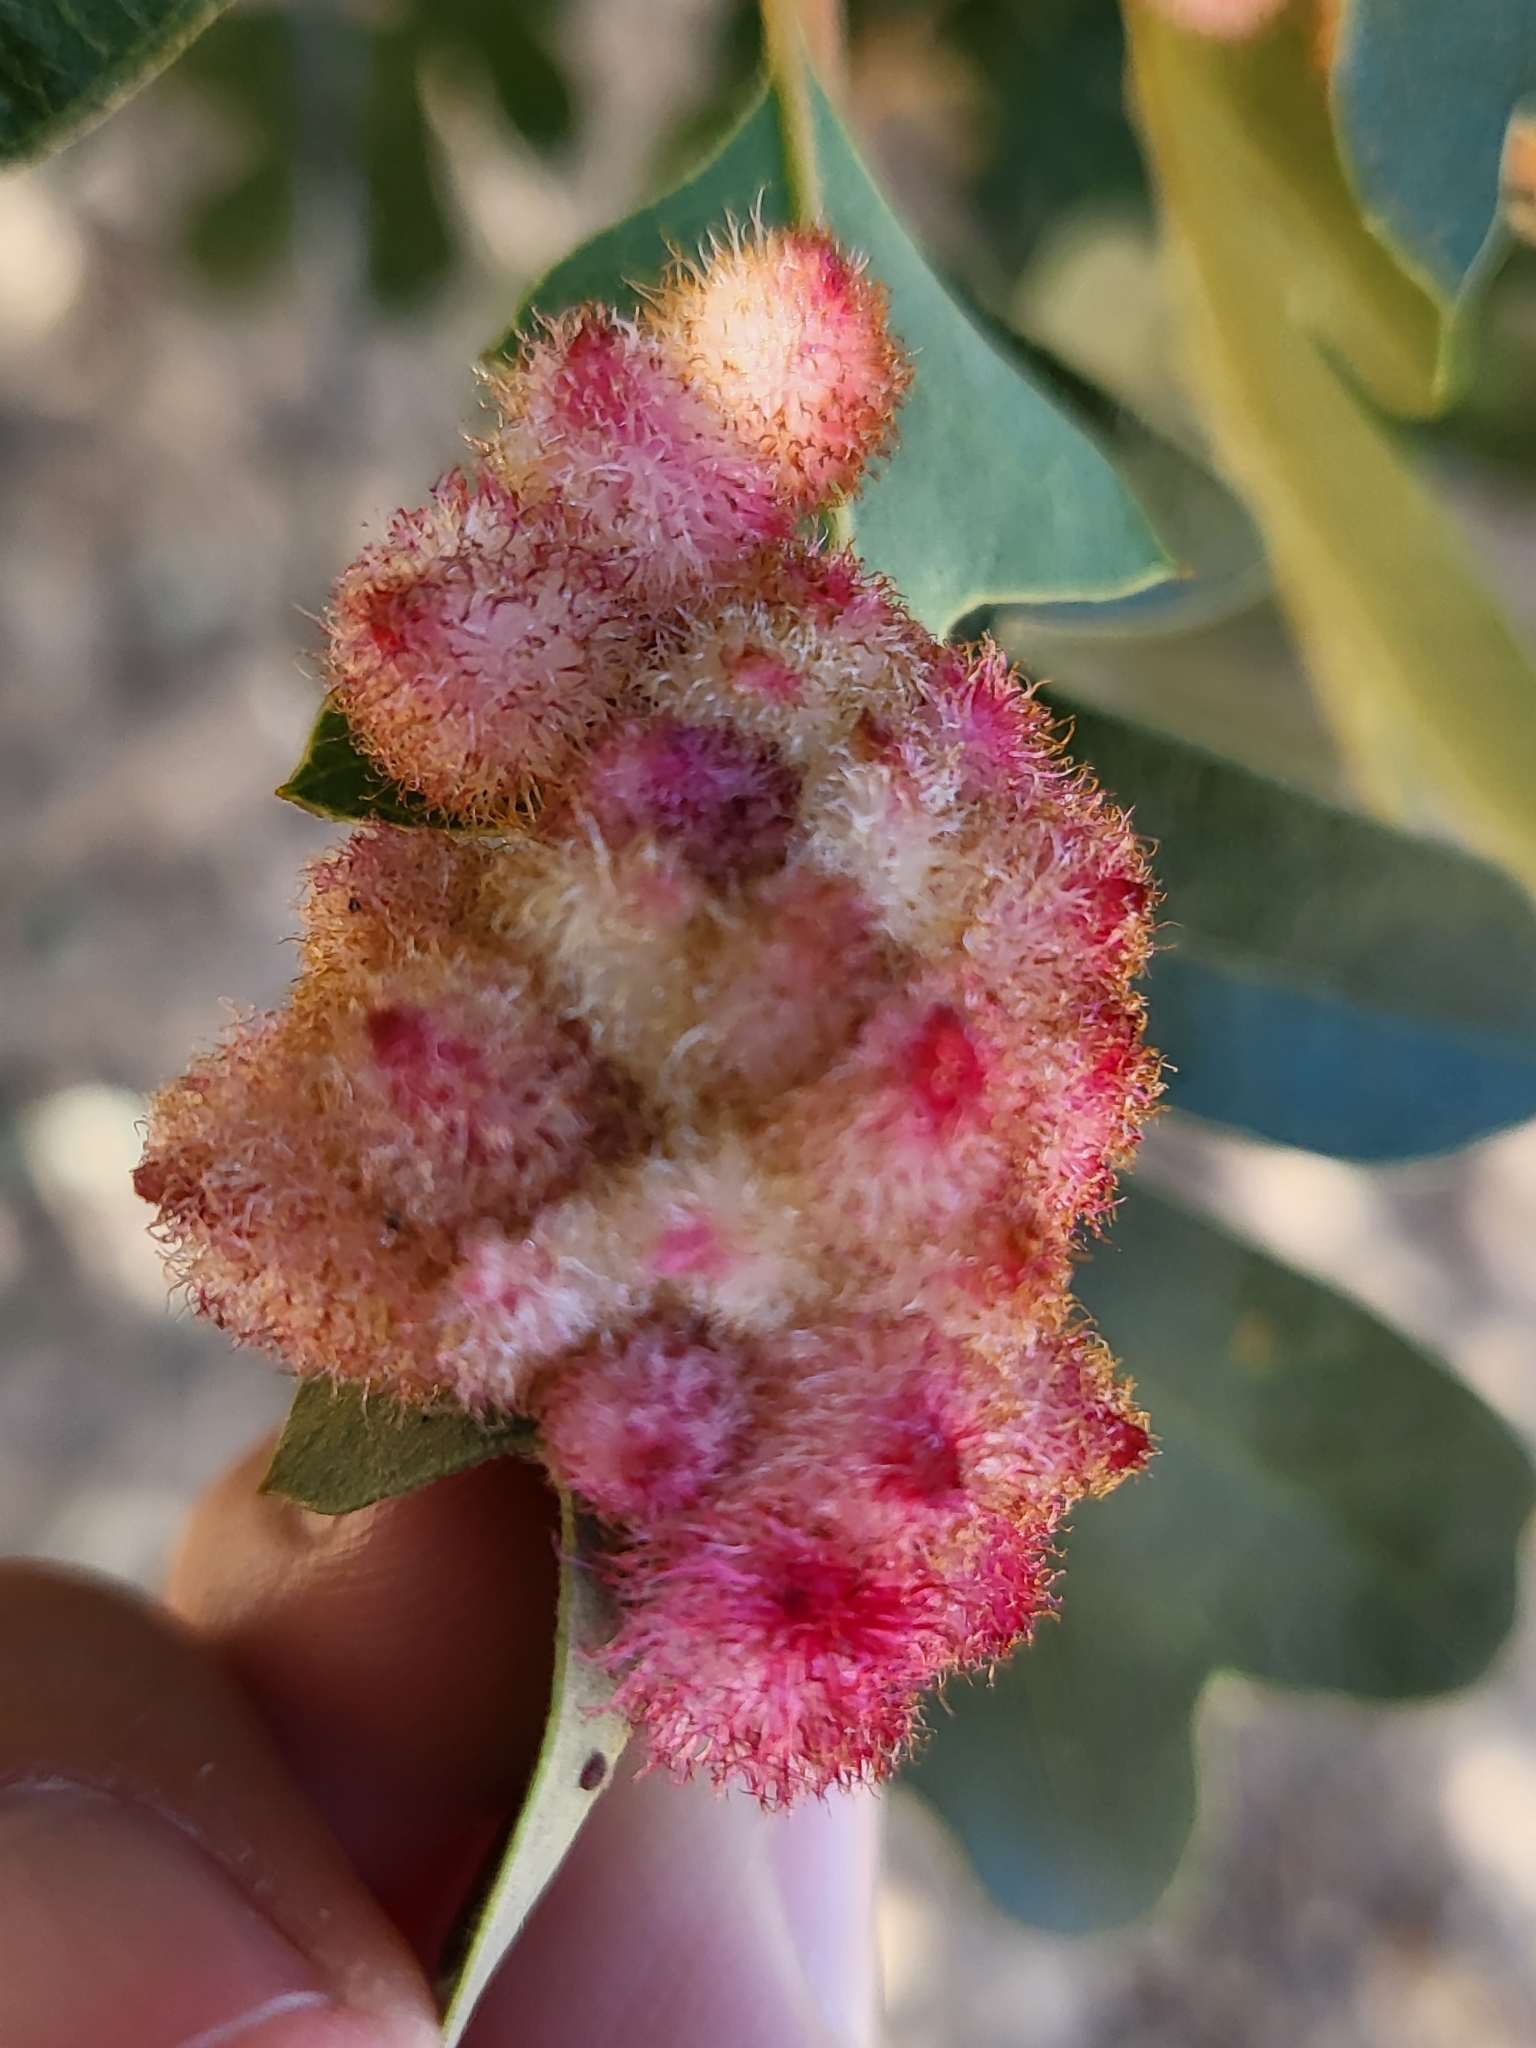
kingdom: Animalia
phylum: Arthropoda
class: Insecta
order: Hymenoptera
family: Cynipidae
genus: Andricus
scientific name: Andricus
